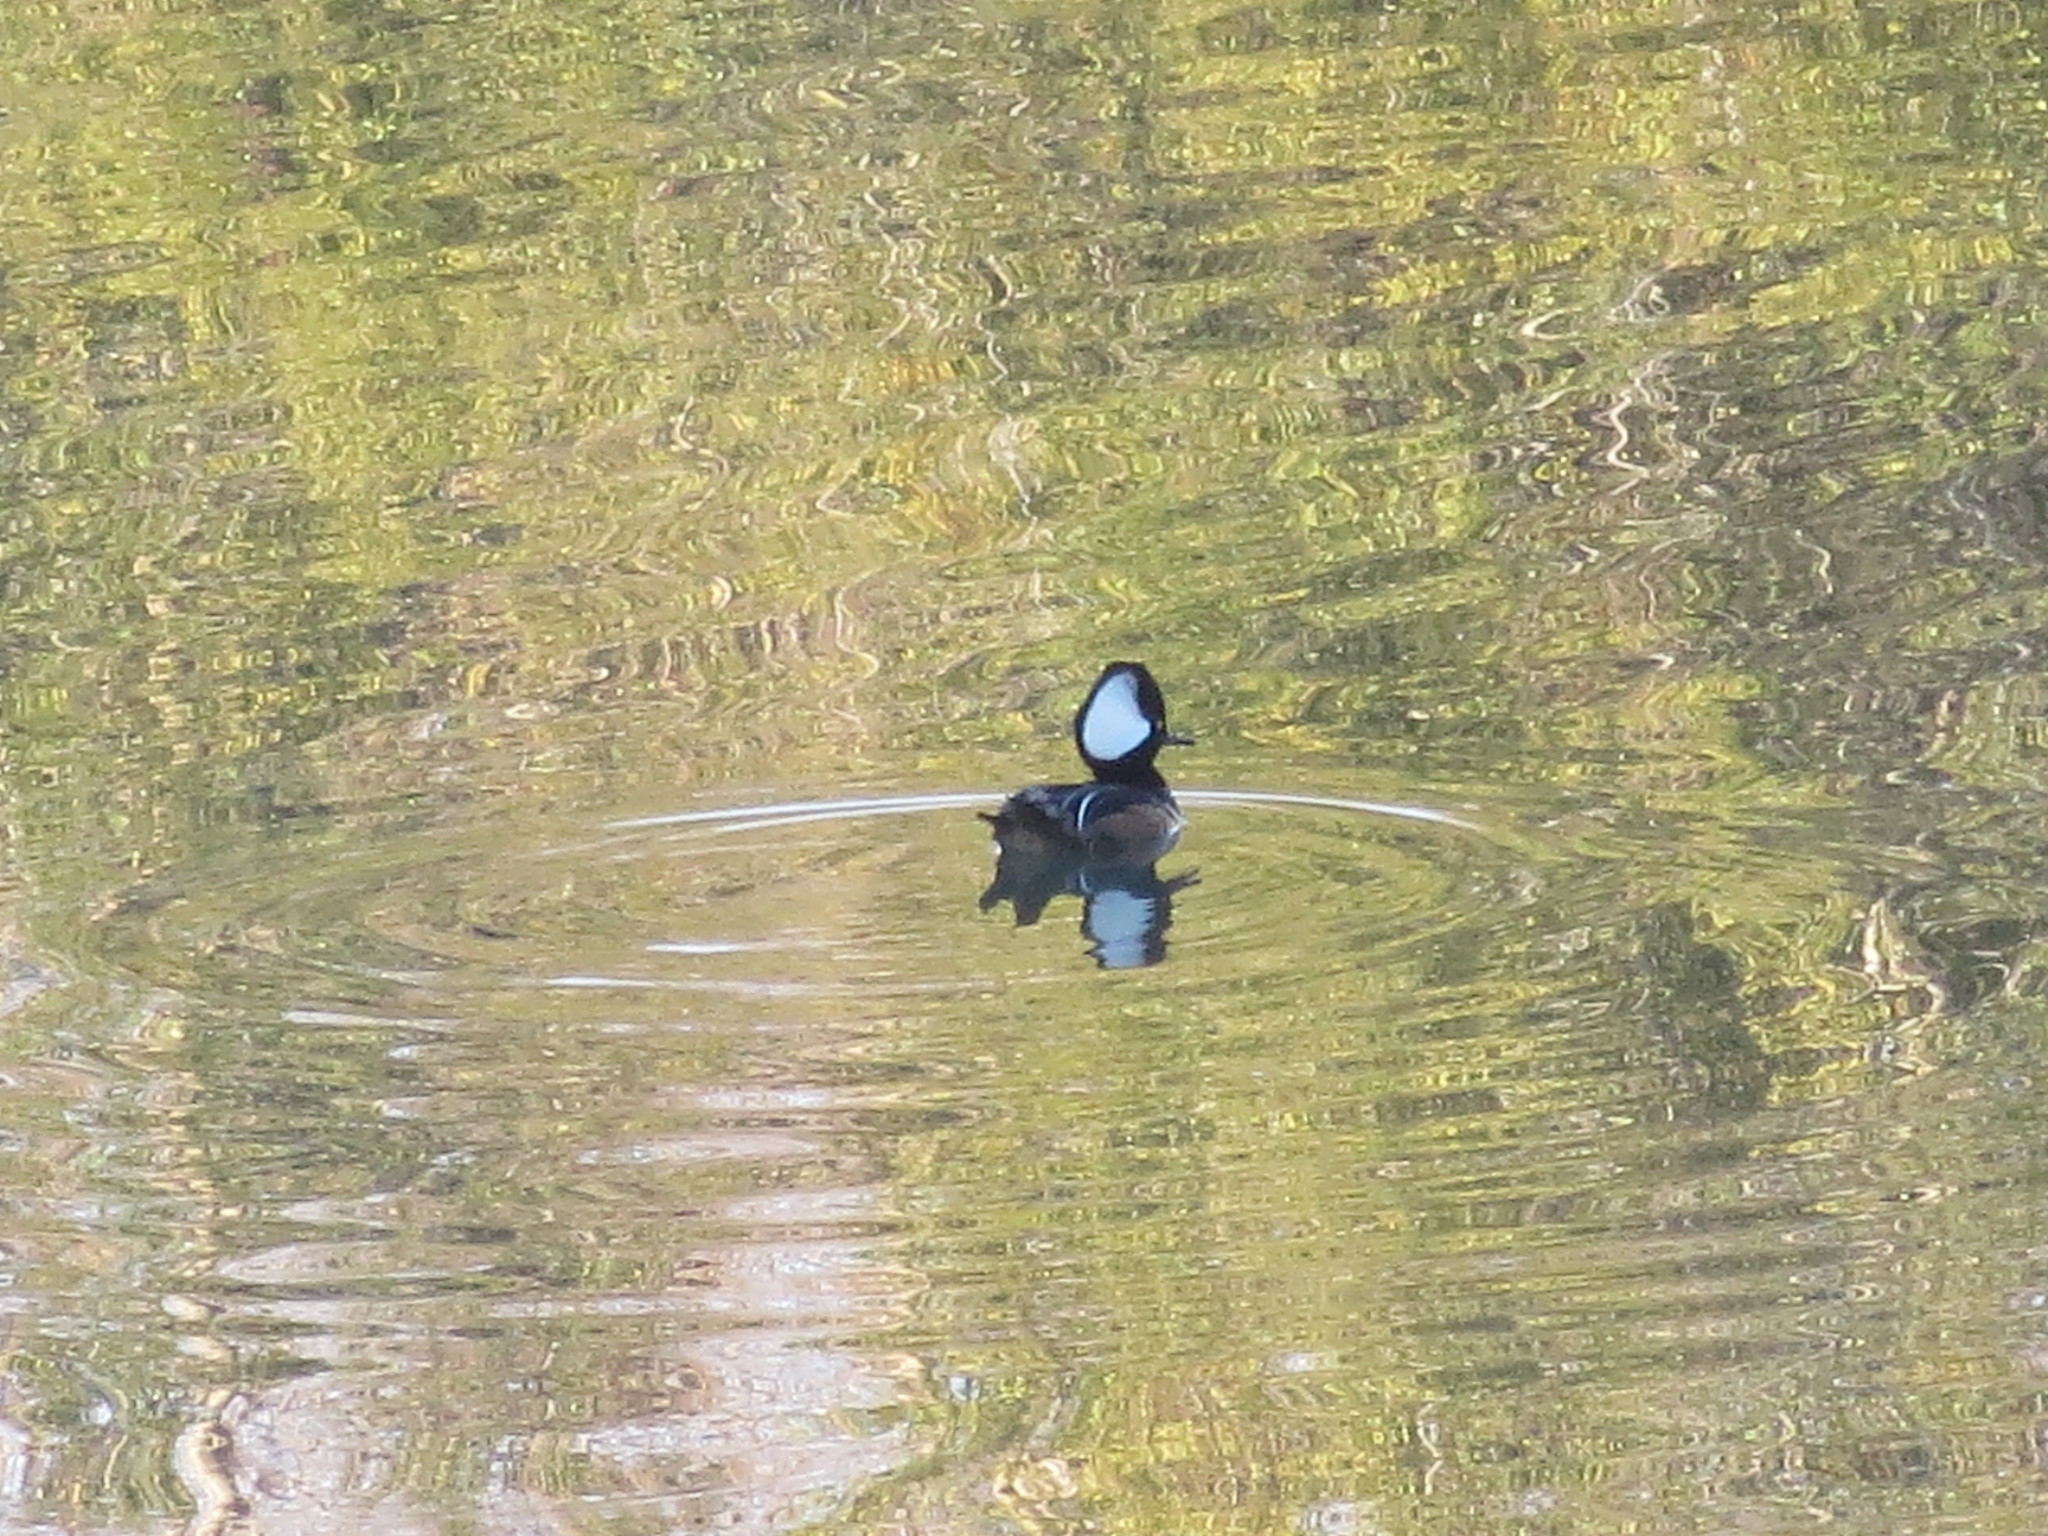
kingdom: Animalia
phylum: Chordata
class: Aves
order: Anseriformes
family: Anatidae
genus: Lophodytes
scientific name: Lophodytes cucullatus
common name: Hooded merganser
